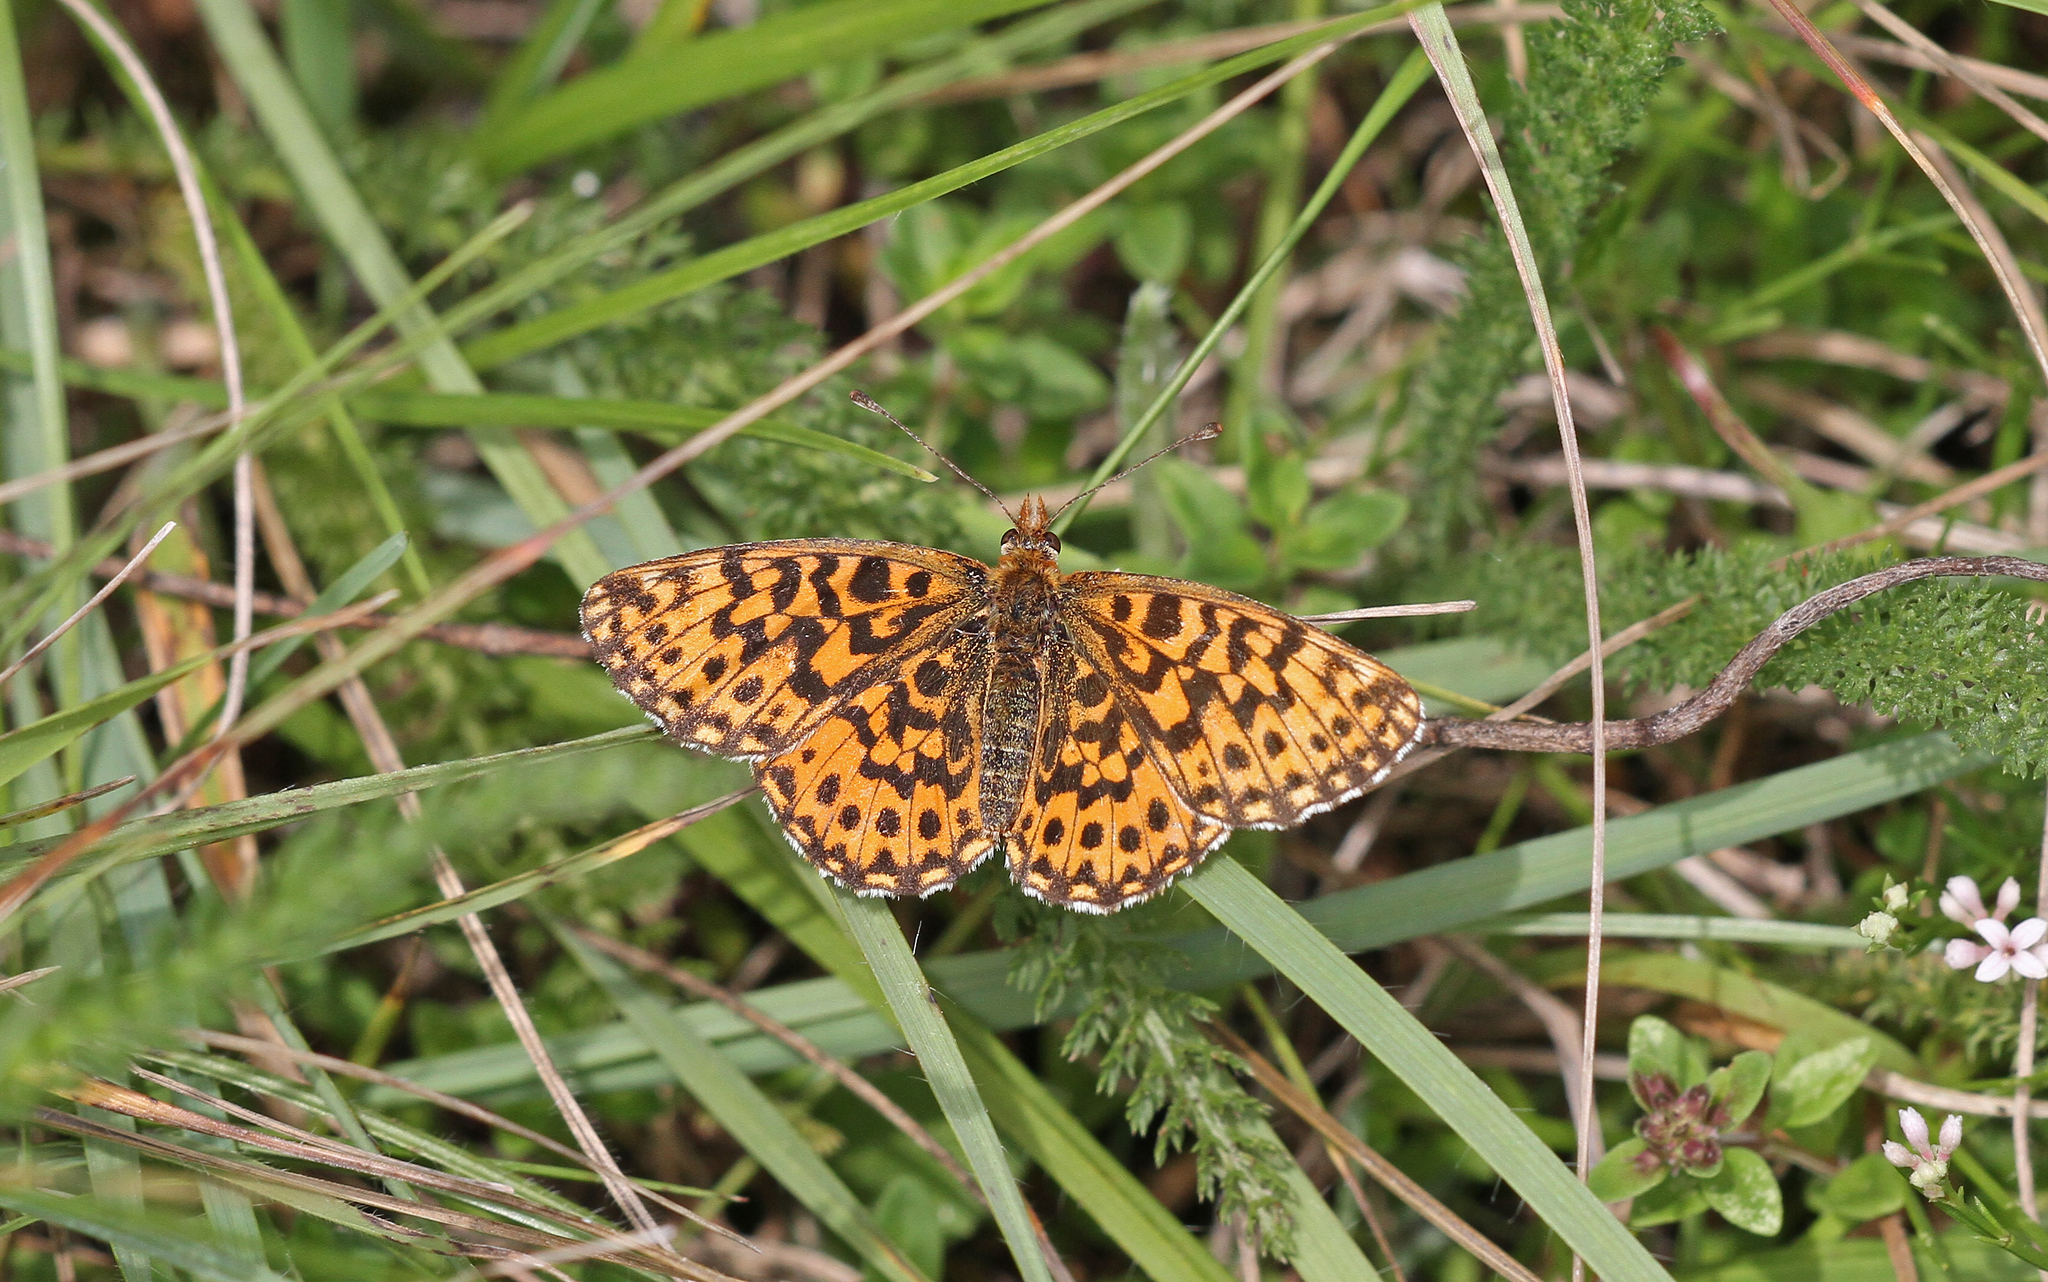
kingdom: Animalia
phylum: Arthropoda
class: Insecta
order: Lepidoptera
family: Nymphalidae
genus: Boloria
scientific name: Boloria dia
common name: Weaver's fritillary
